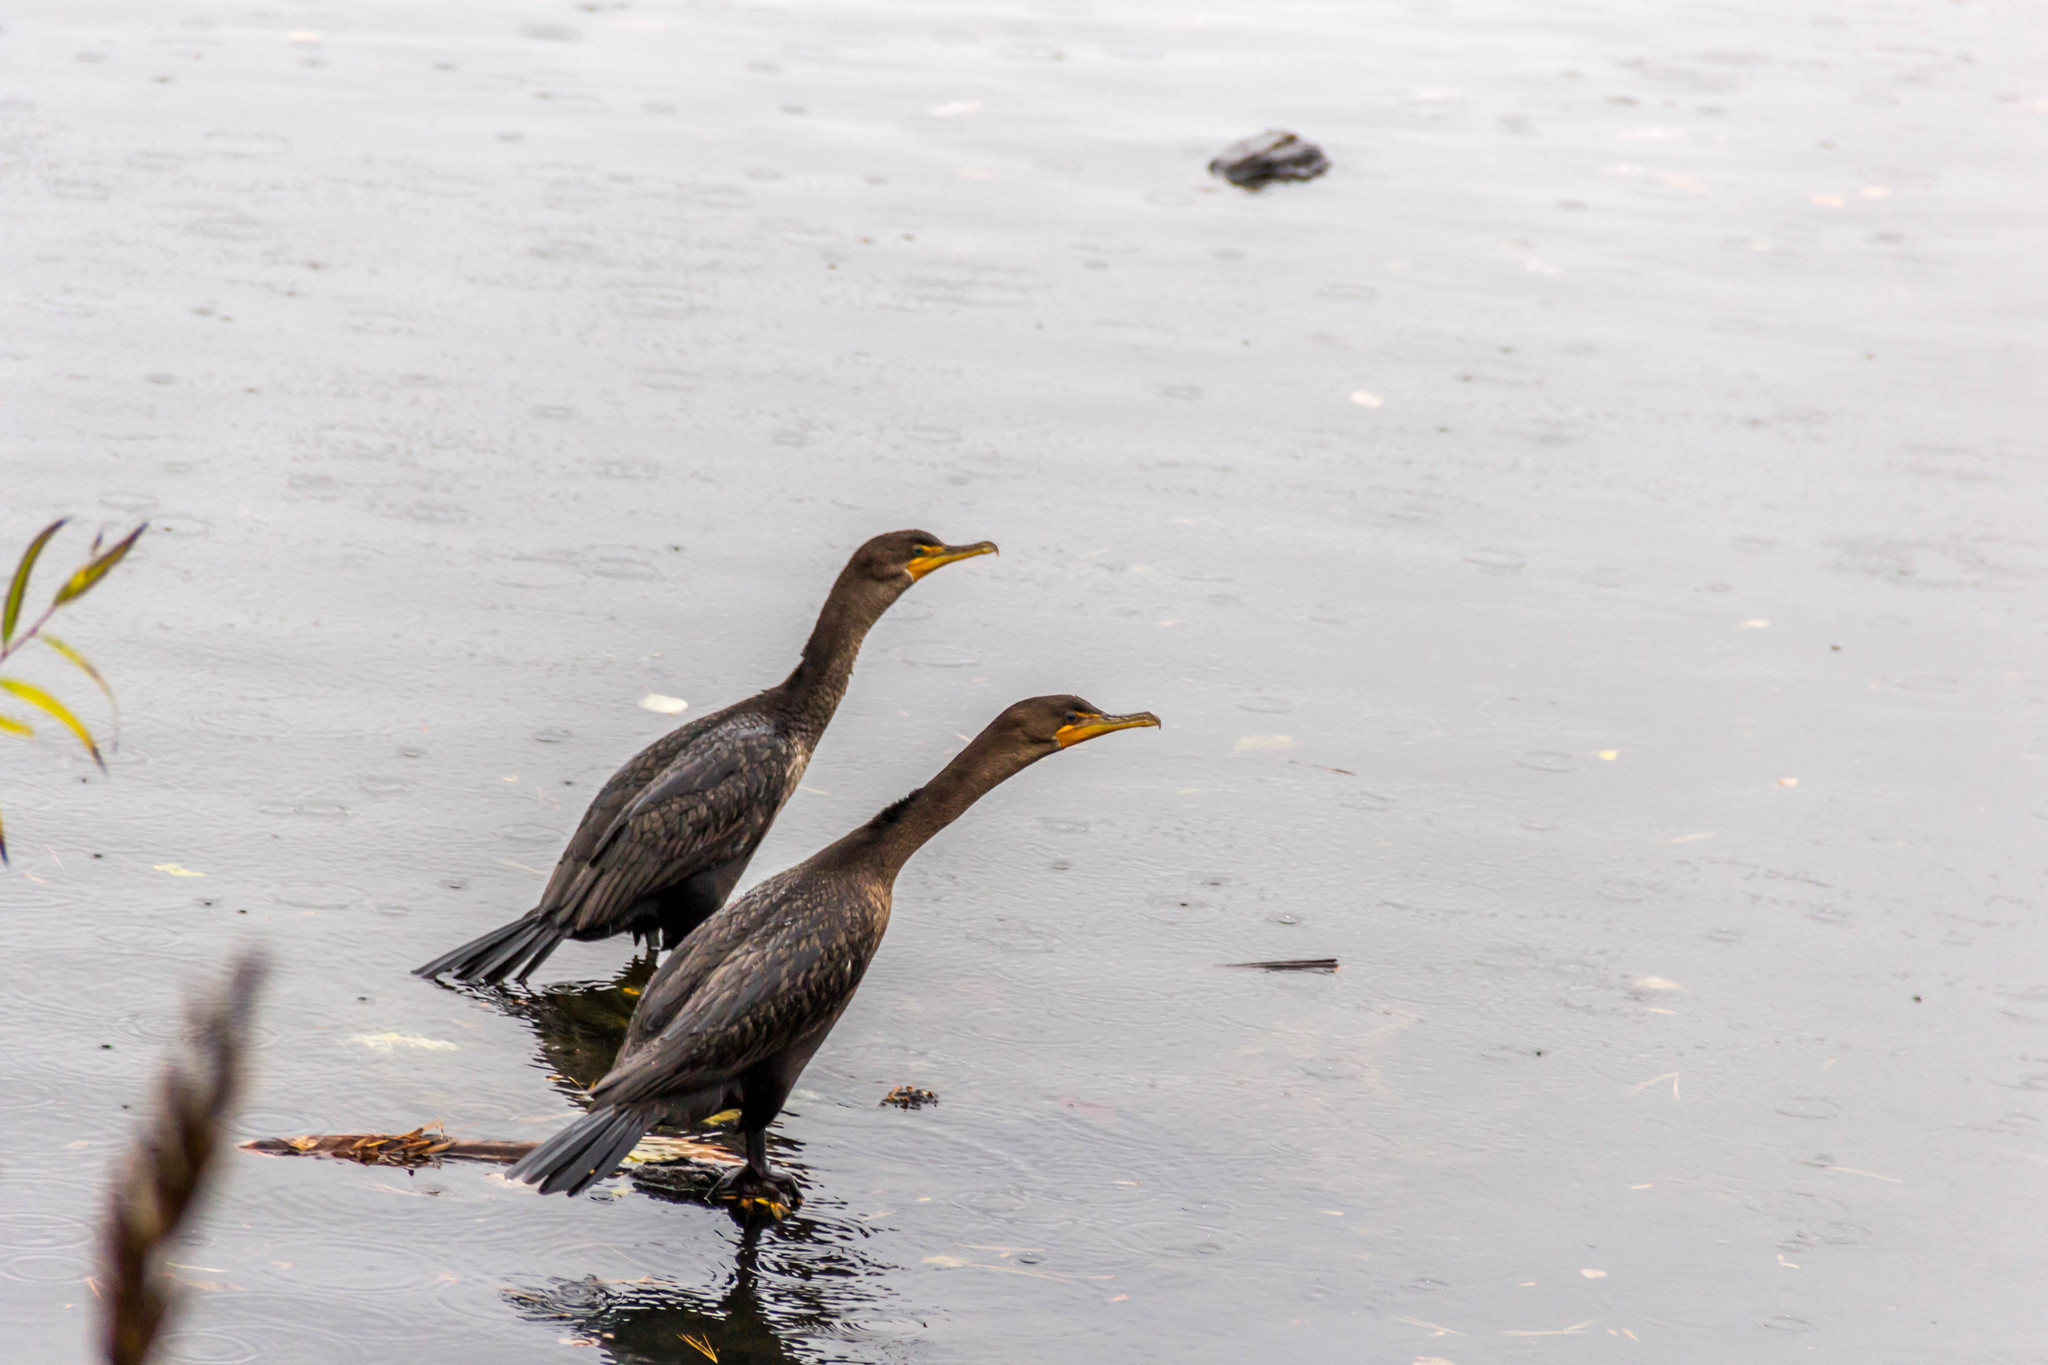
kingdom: Animalia
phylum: Chordata
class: Aves
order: Suliformes
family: Phalacrocoracidae
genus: Phalacrocorax
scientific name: Phalacrocorax auritus
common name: Double-crested cormorant
